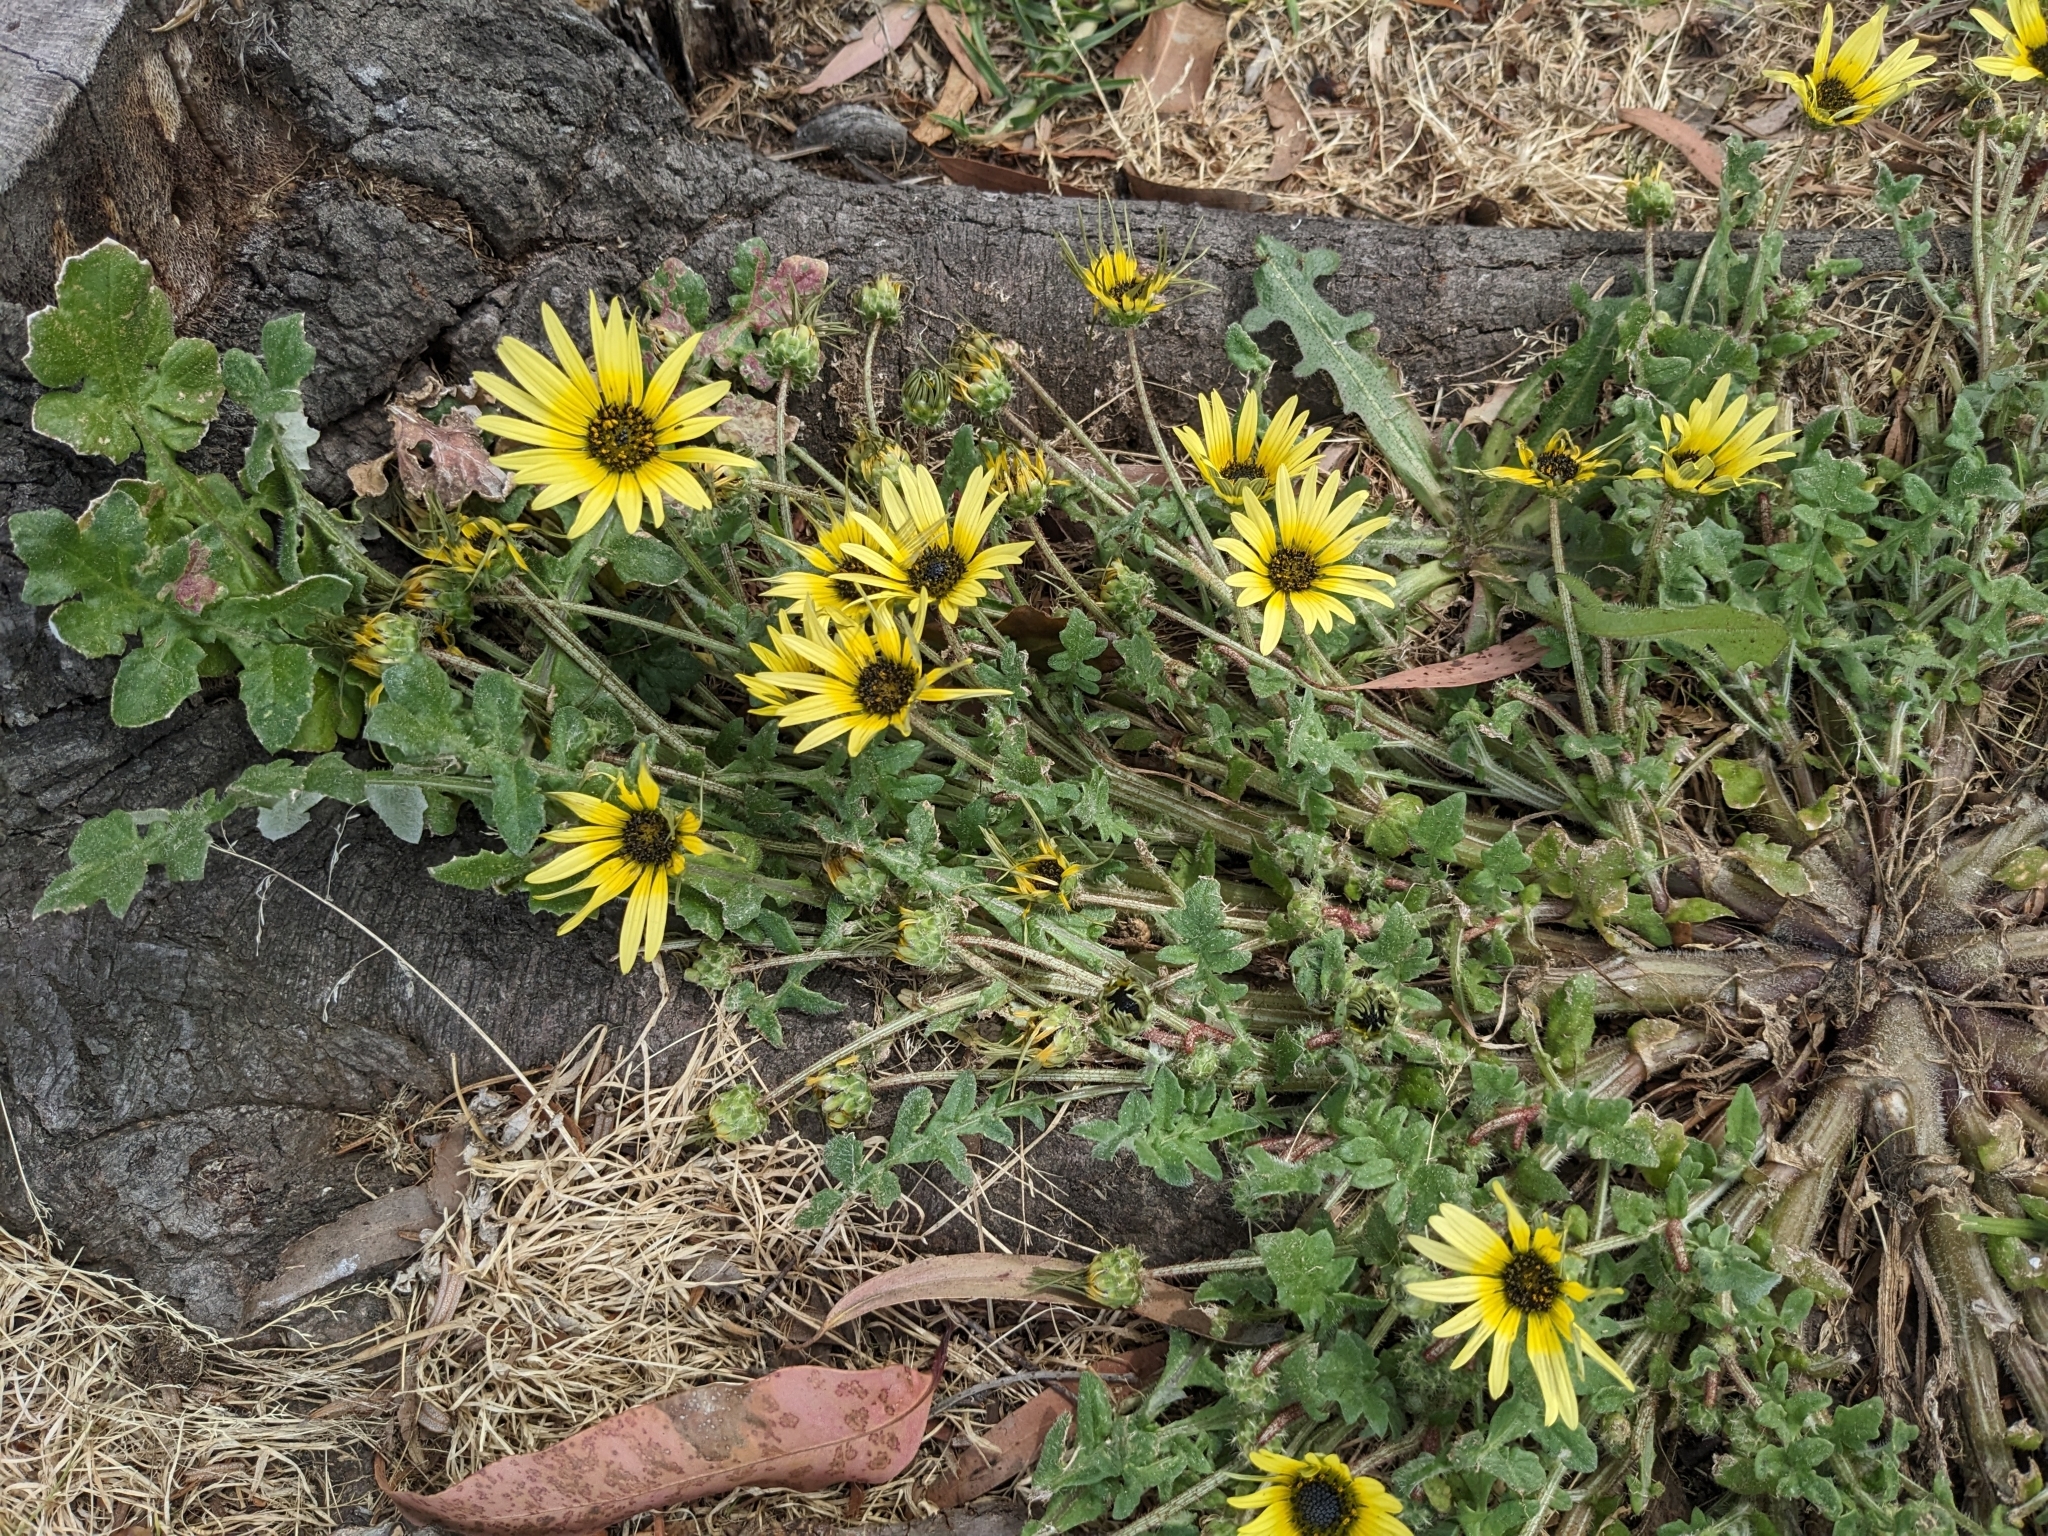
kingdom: Plantae
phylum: Tracheophyta
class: Magnoliopsida
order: Asterales
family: Asteraceae
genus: Arctotheca
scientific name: Arctotheca calendula
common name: Capeweed
